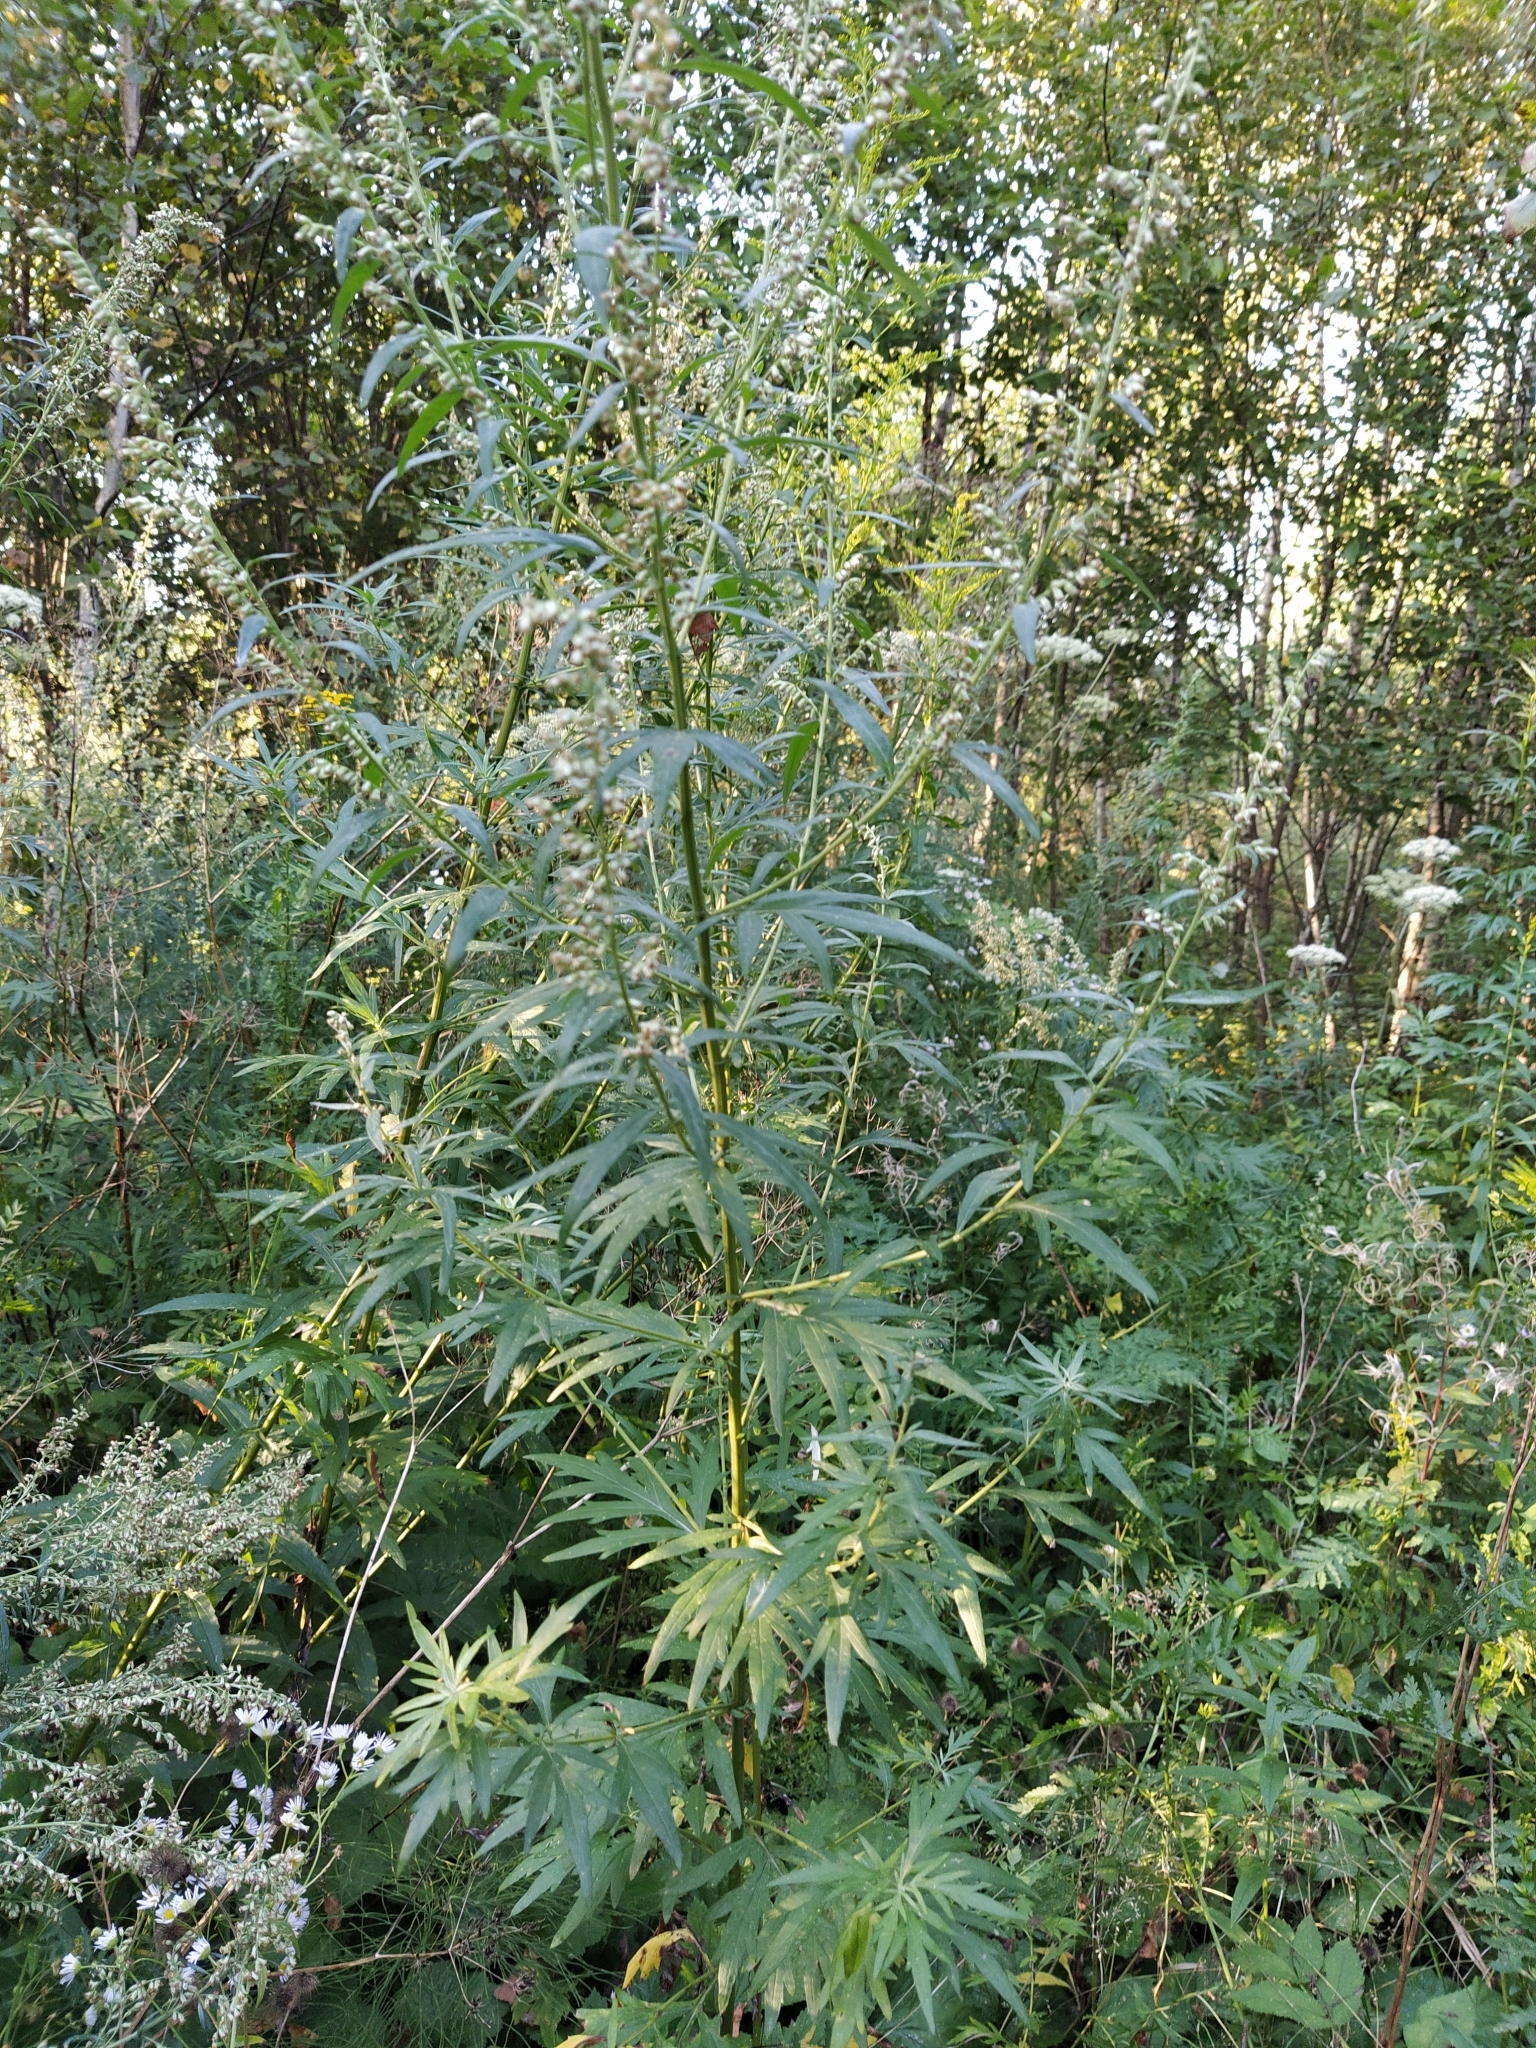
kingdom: Plantae
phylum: Tracheophyta
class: Magnoliopsida
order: Asterales
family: Asteraceae
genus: Artemisia
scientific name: Artemisia vulgaris
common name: Mugwort
